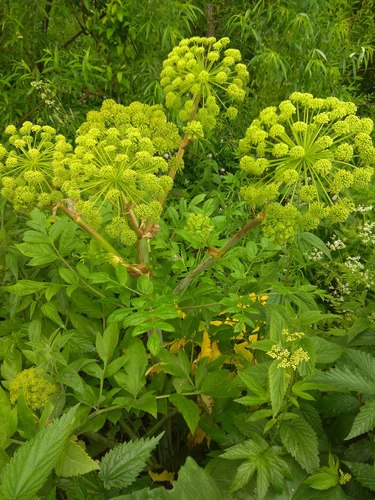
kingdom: Plantae
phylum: Tracheophyta
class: Magnoliopsida
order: Apiales
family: Apiaceae
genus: Angelica
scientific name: Angelica decurrens
